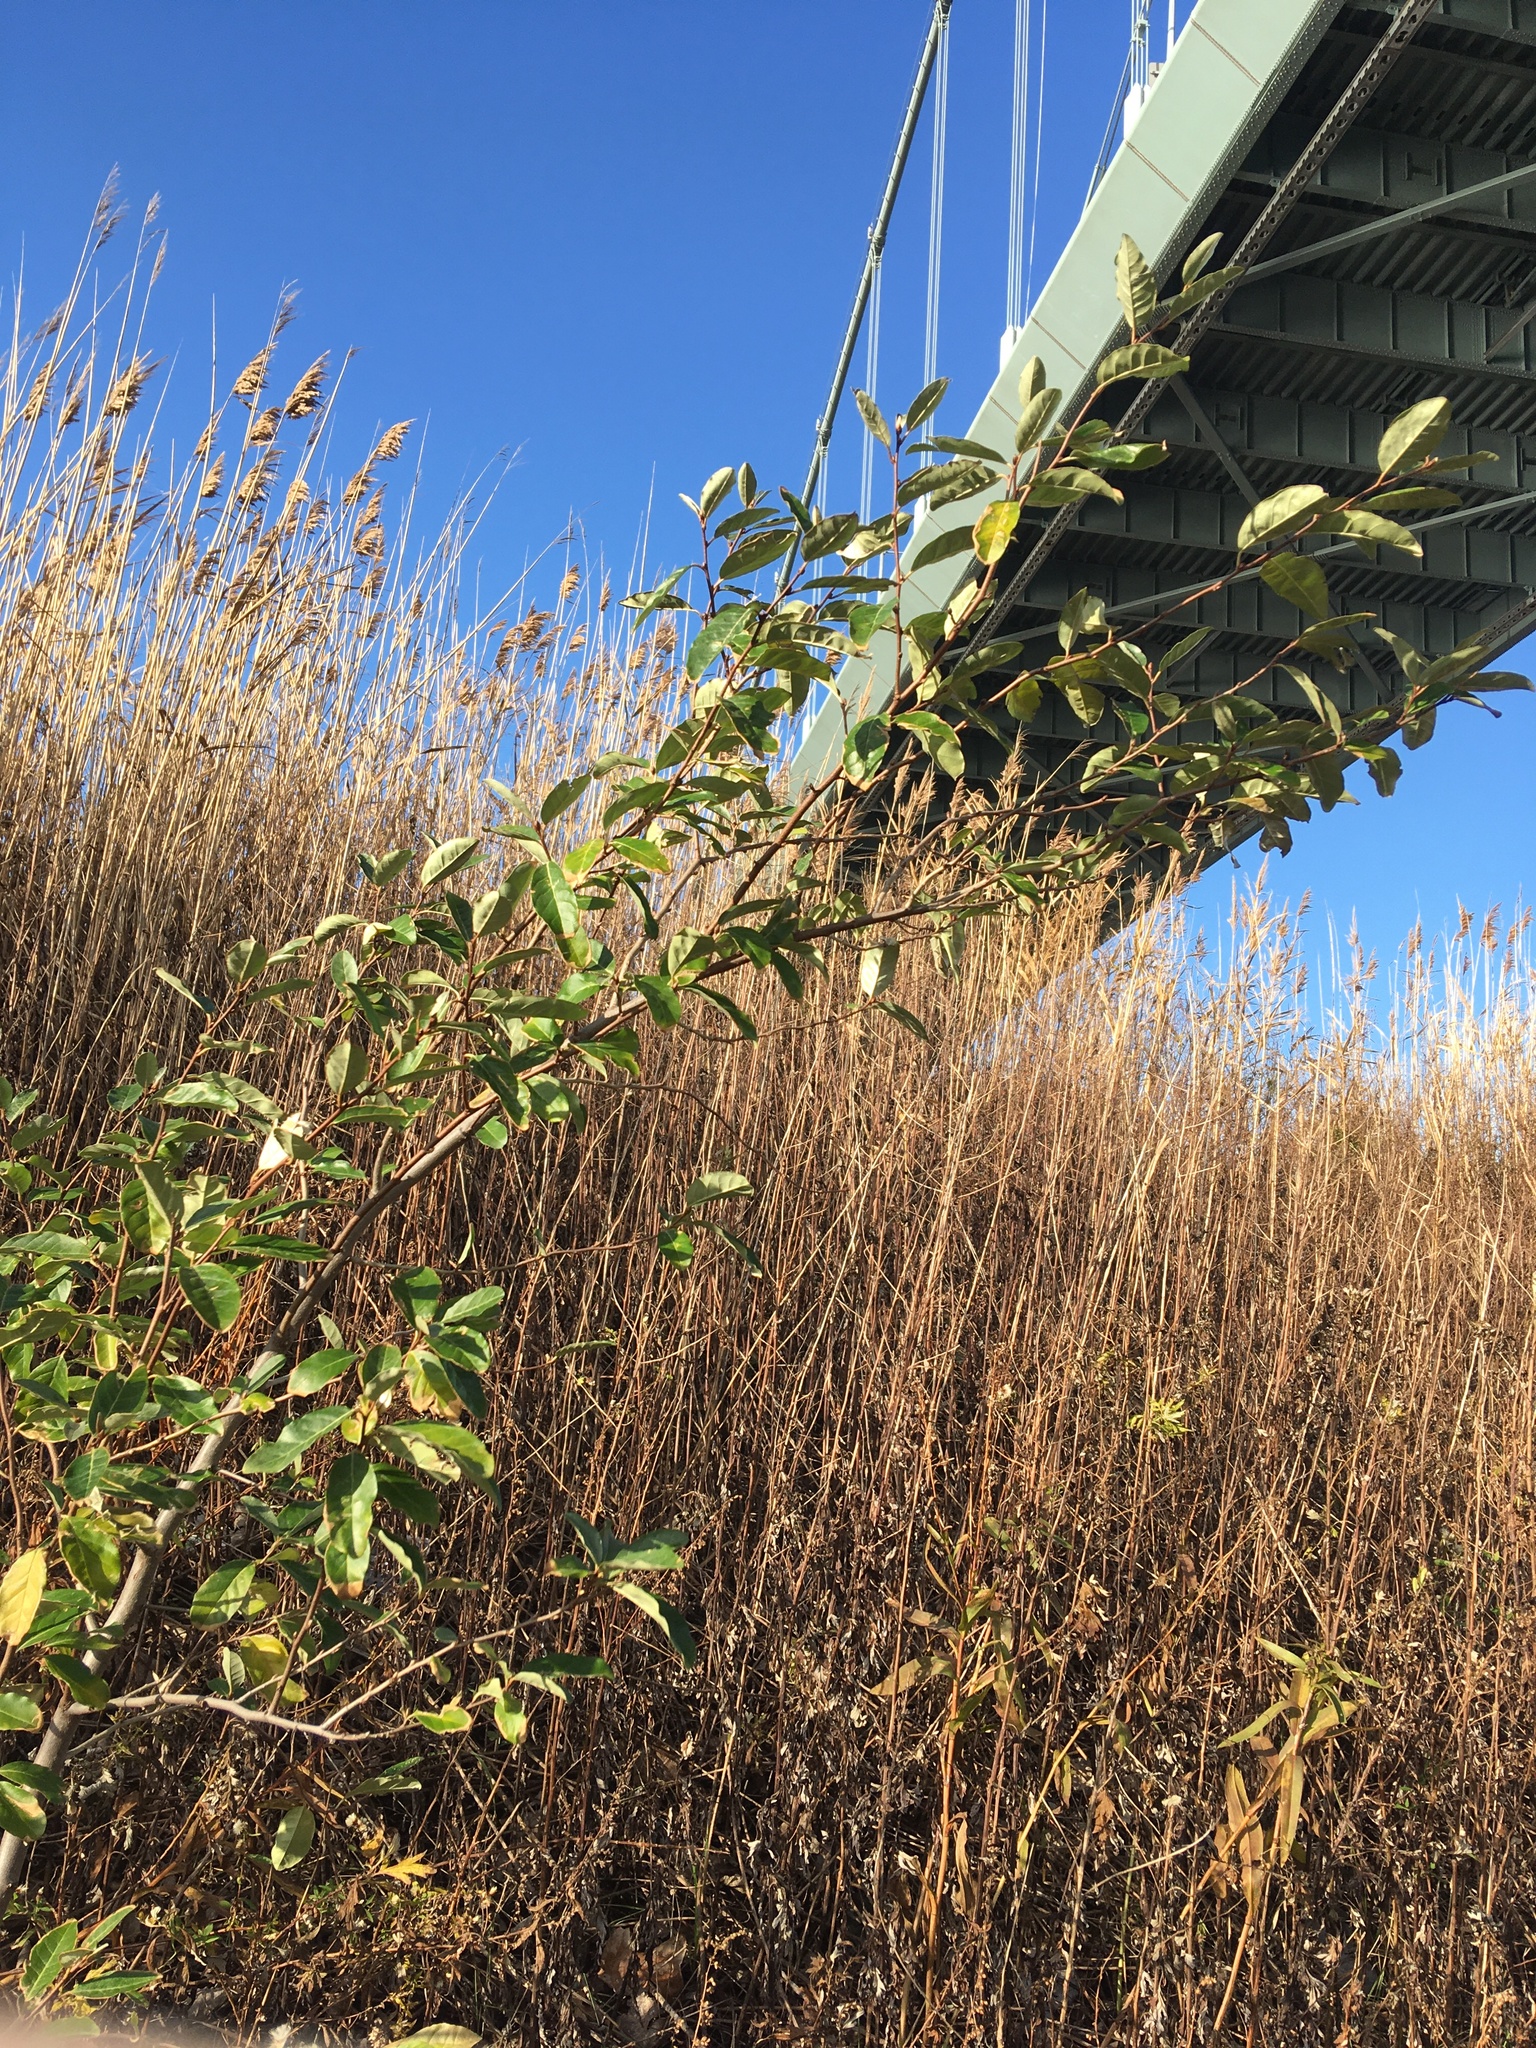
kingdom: Plantae
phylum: Tracheophyta
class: Magnoliopsida
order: Rosales
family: Elaeagnaceae
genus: Elaeagnus
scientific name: Elaeagnus umbellata
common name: Autumn olive
